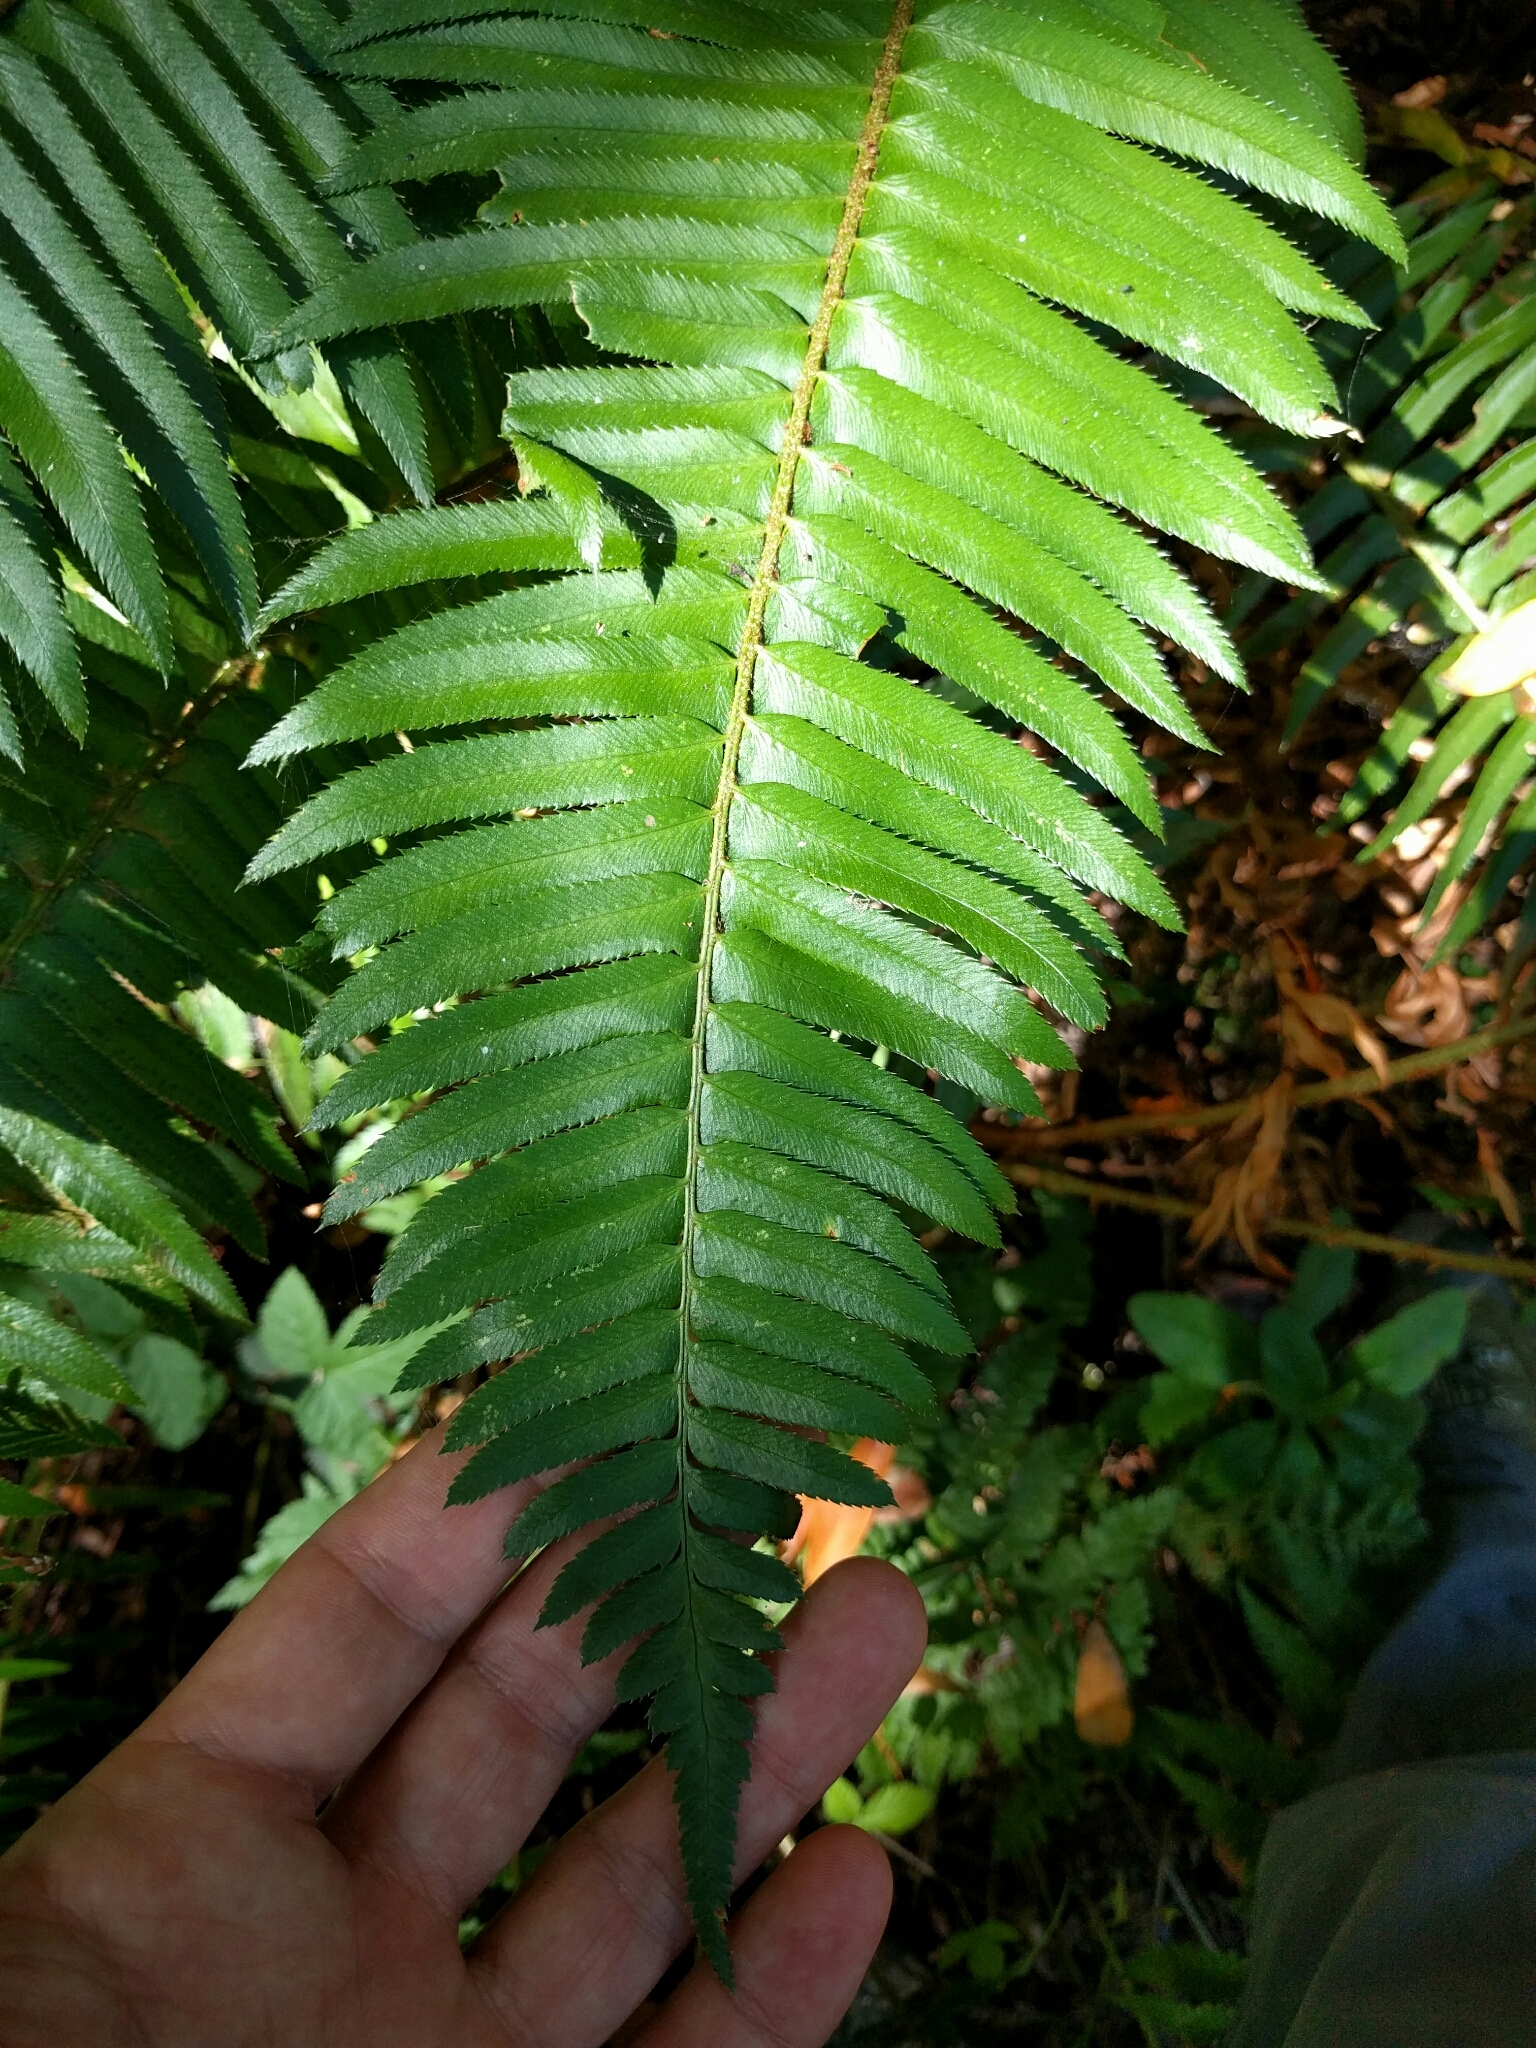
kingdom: Plantae
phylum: Tracheophyta
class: Polypodiopsida
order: Polypodiales
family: Dryopteridaceae
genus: Polystichum
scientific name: Polystichum munitum
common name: Western sword-fern
